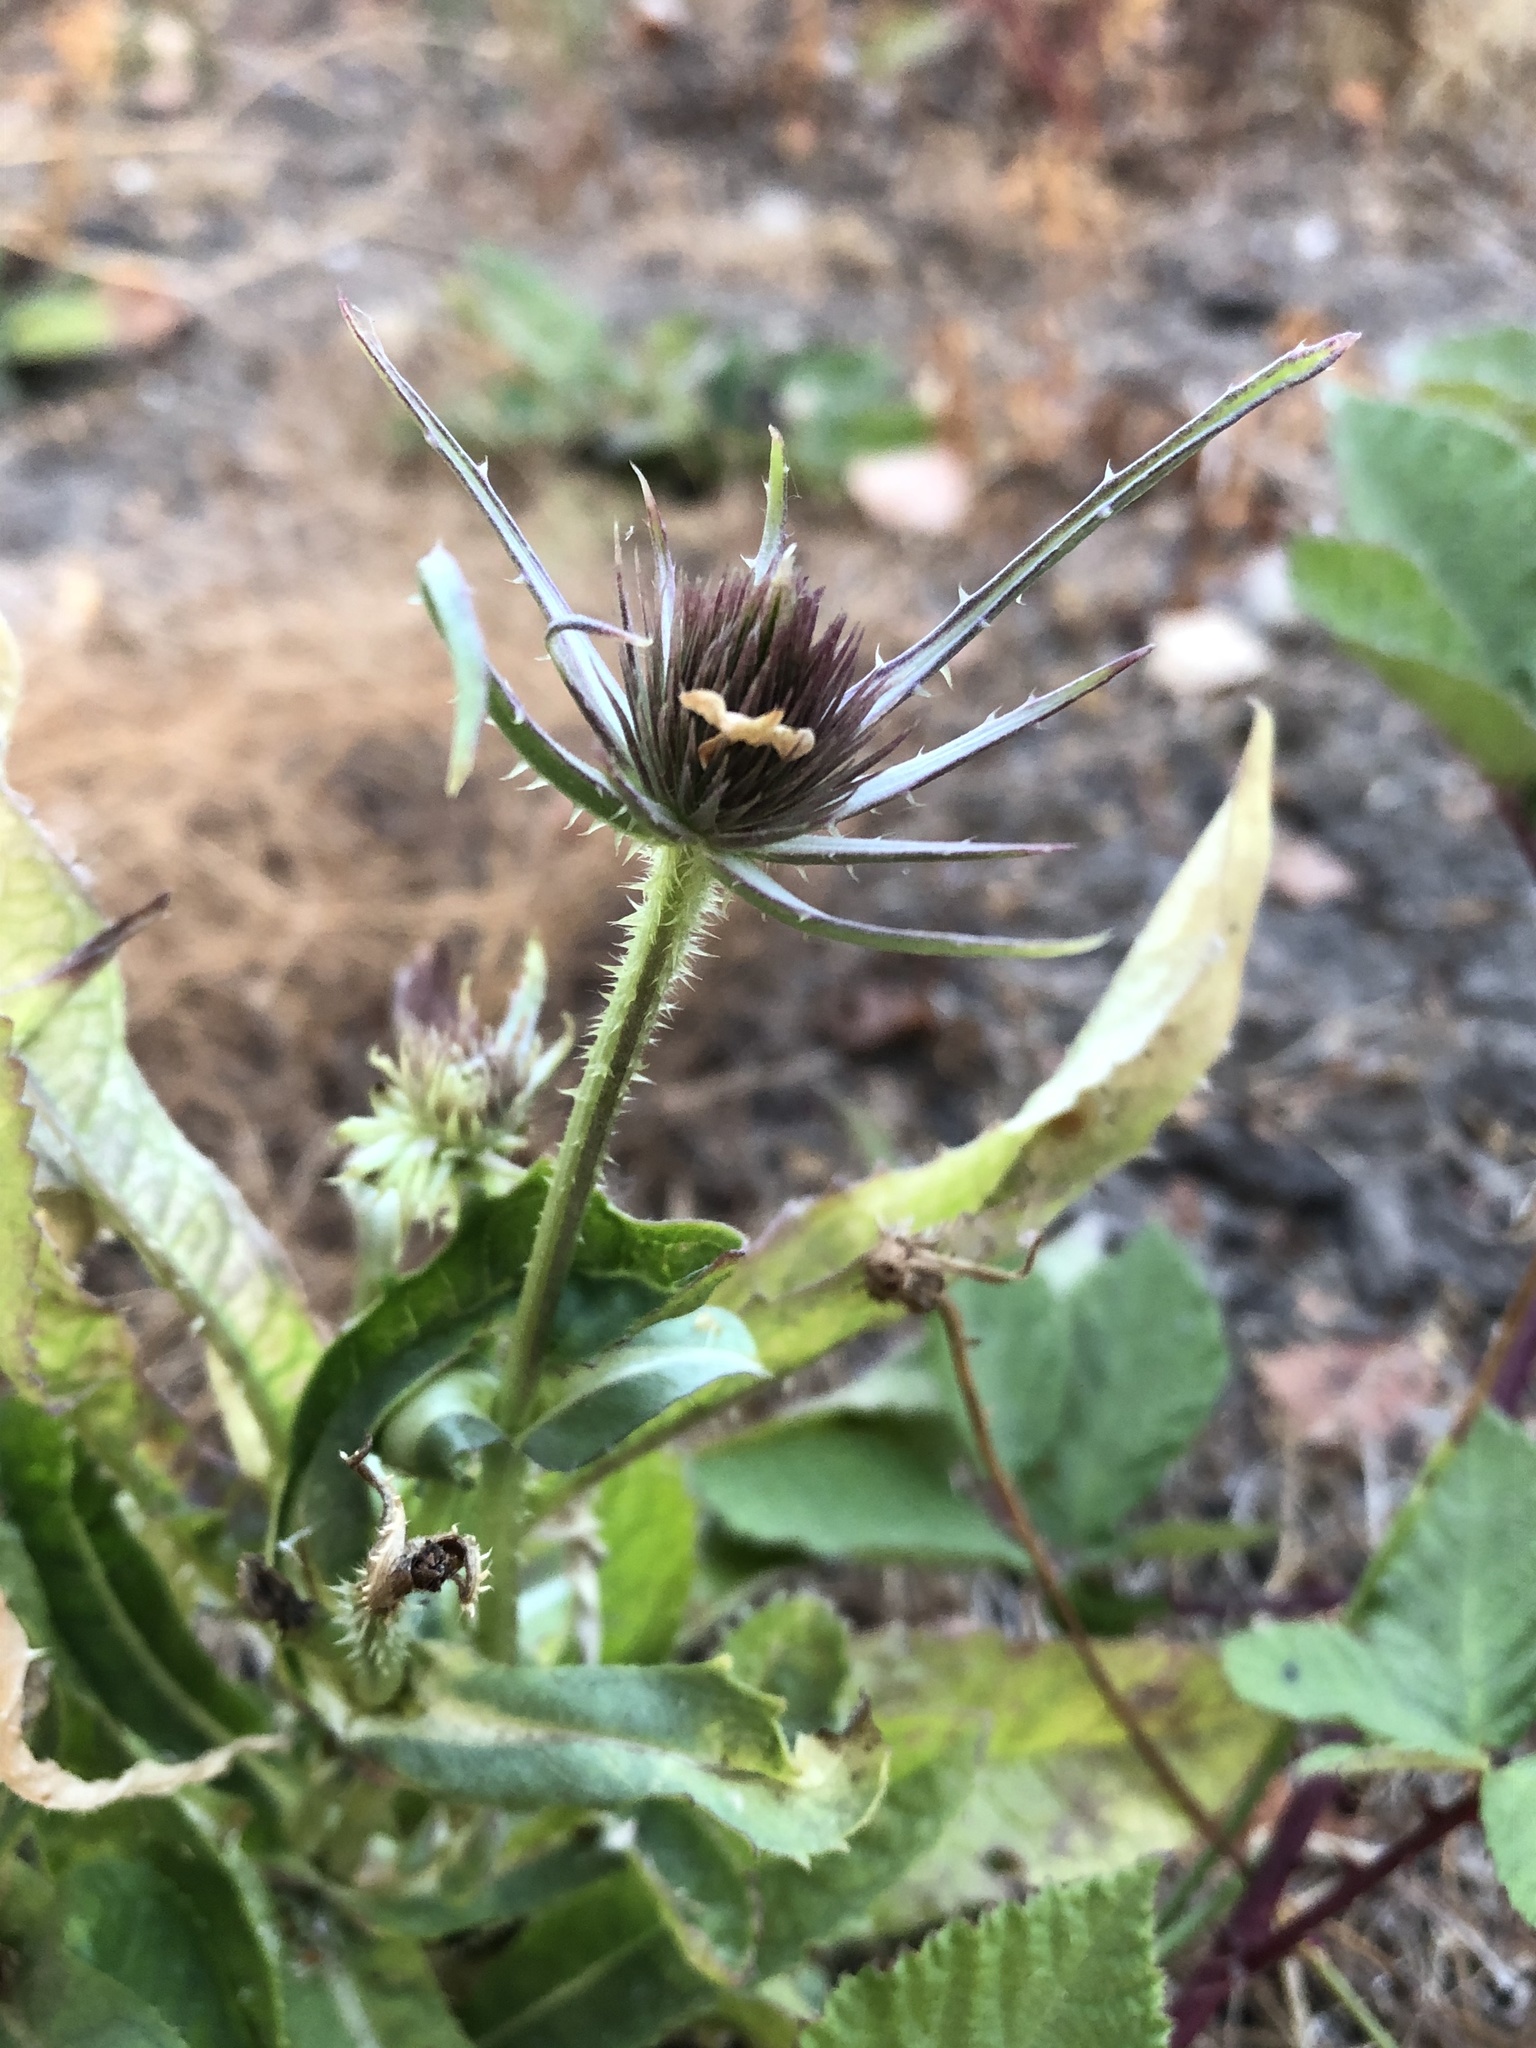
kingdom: Plantae
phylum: Tracheophyta
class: Magnoliopsida
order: Dipsacales
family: Caprifoliaceae
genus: Dipsacus
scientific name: Dipsacus fullonum
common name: Teasel
